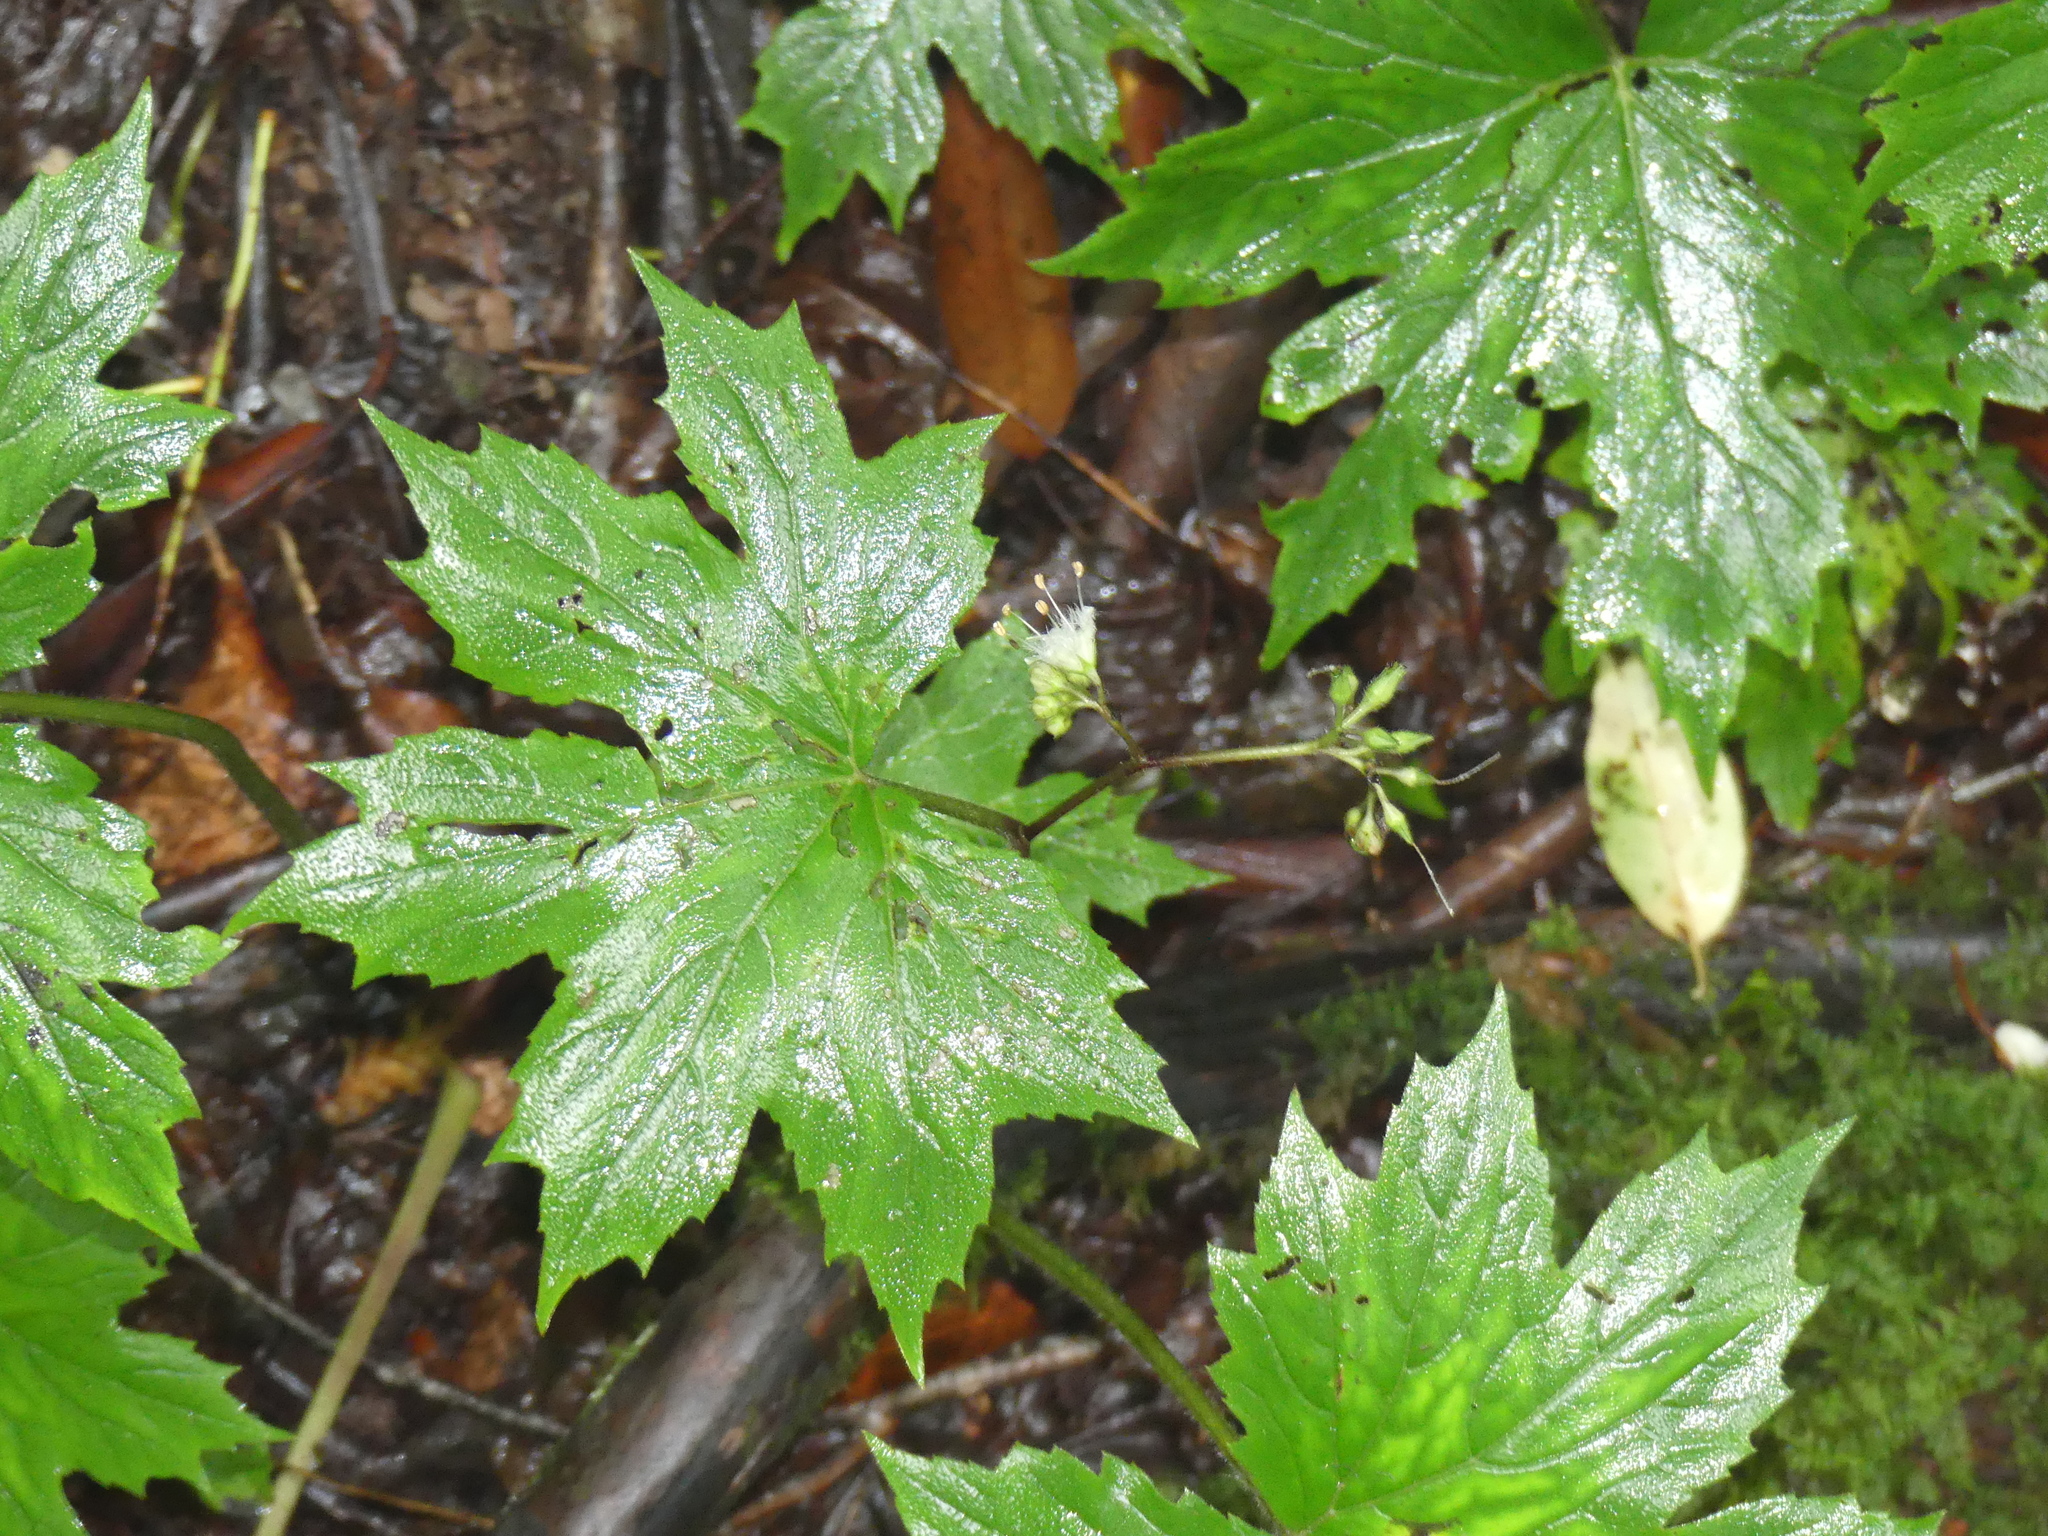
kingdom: Plantae
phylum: Tracheophyta
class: Magnoliopsida
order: Boraginales
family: Hydrophyllaceae
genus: Hydrophyllum
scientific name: Hydrophyllum canadense
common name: Canada waterleaf
